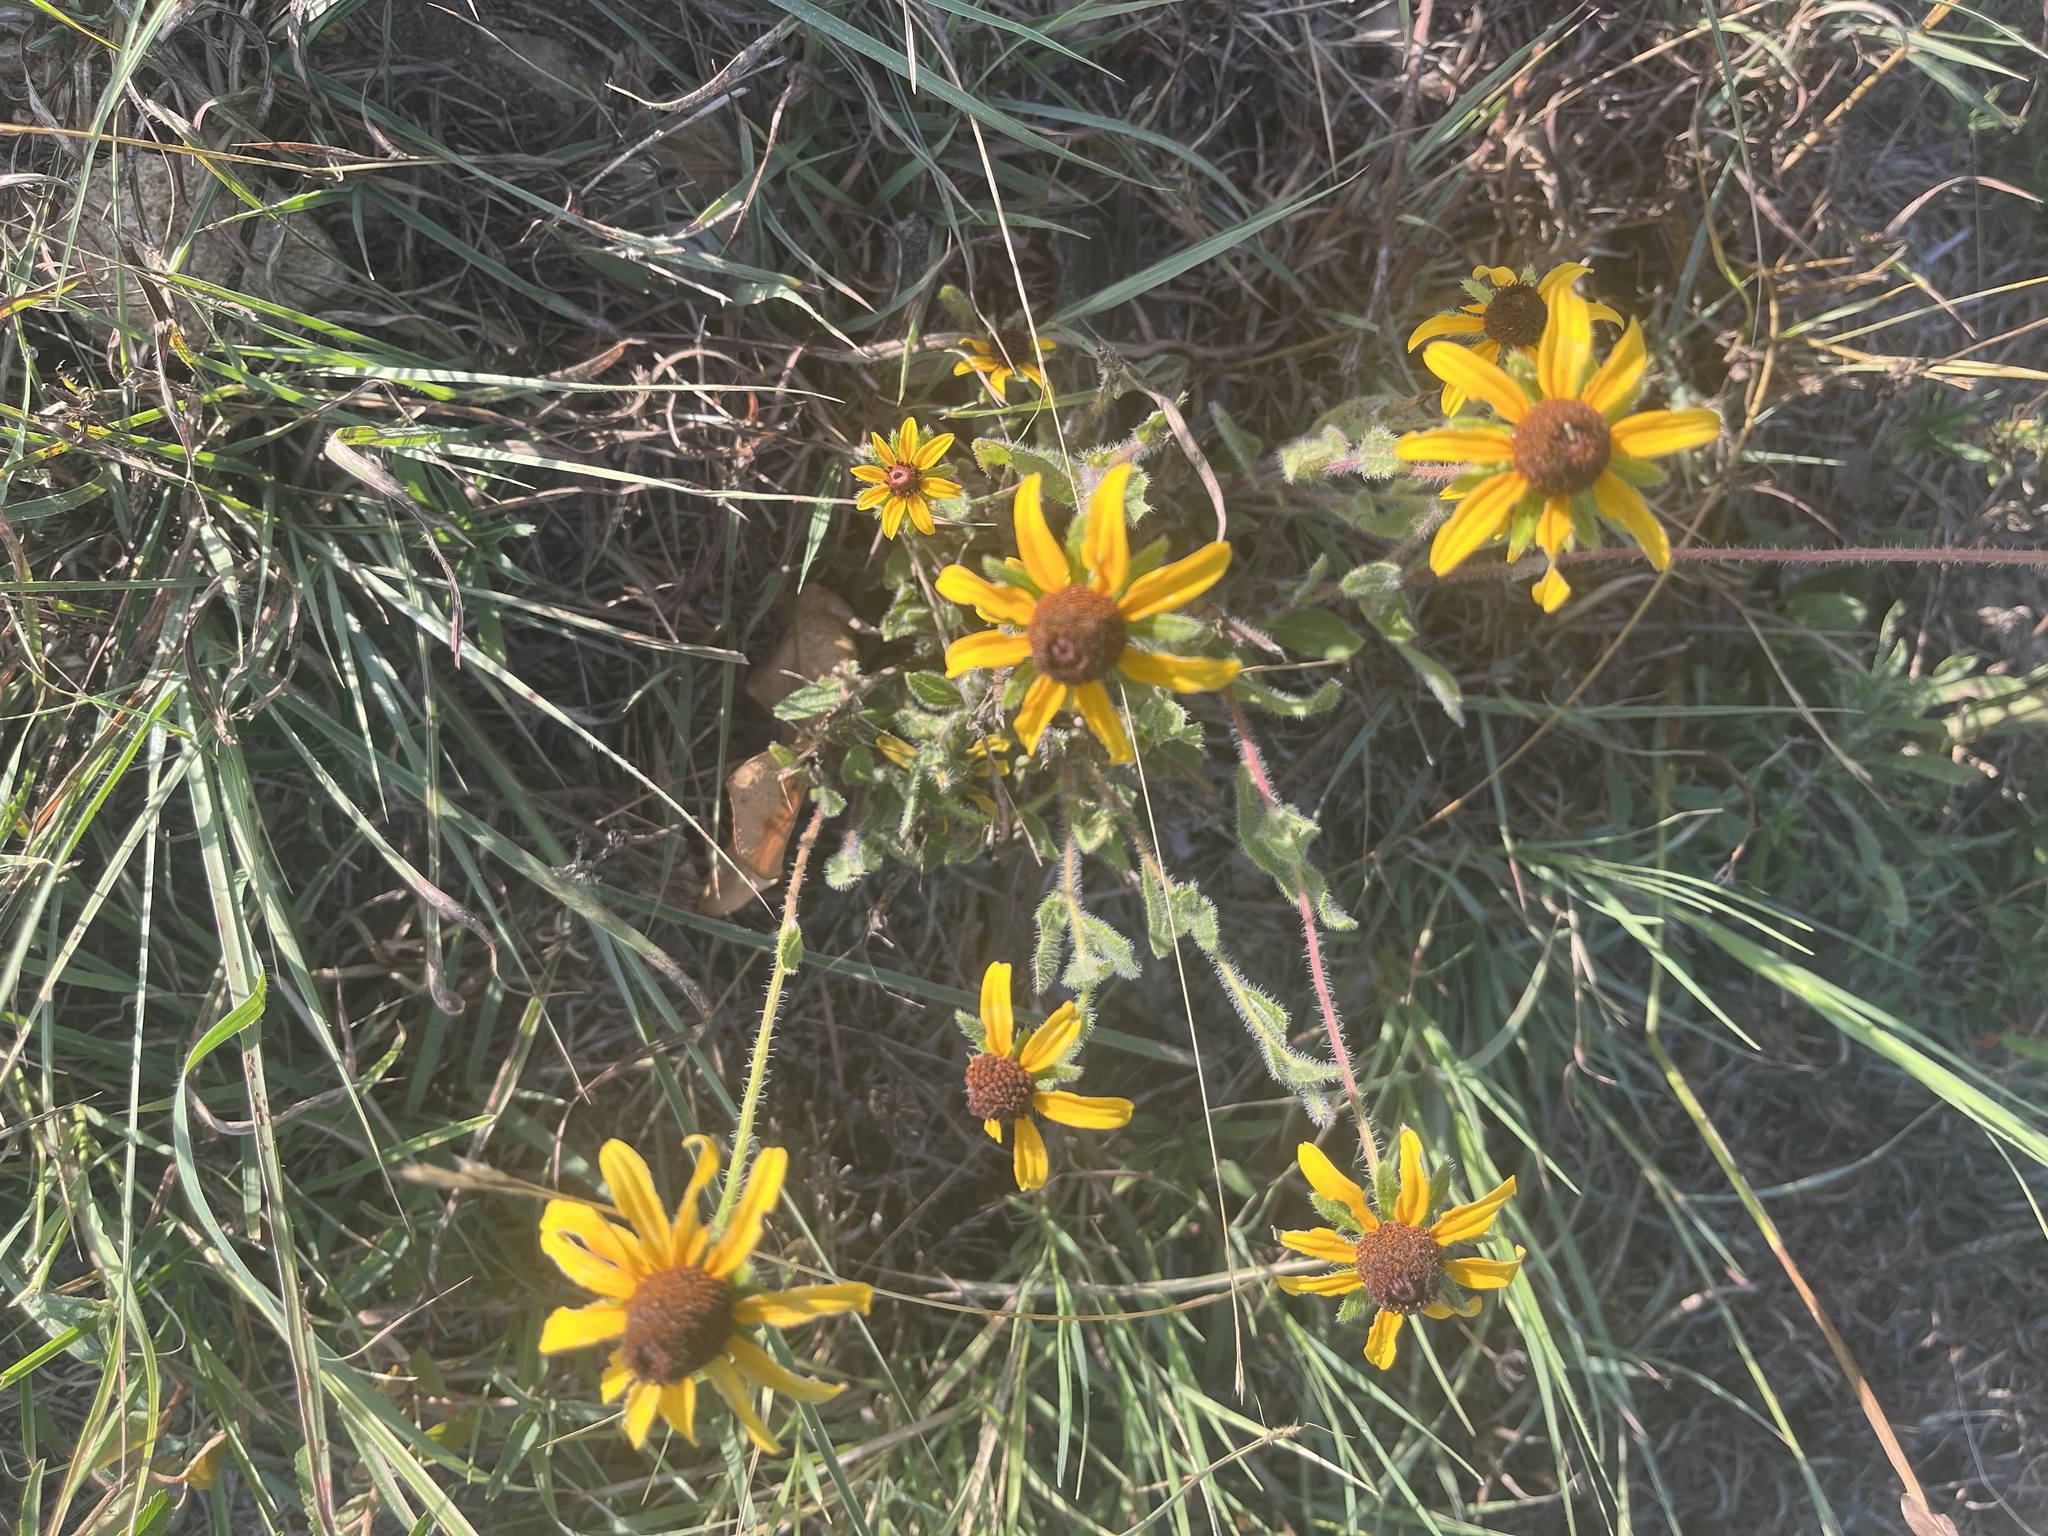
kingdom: Plantae
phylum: Tracheophyta
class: Magnoliopsida
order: Asterales
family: Asteraceae
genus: Rudbeckia
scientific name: Rudbeckia hirta
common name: Black-eyed-susan
